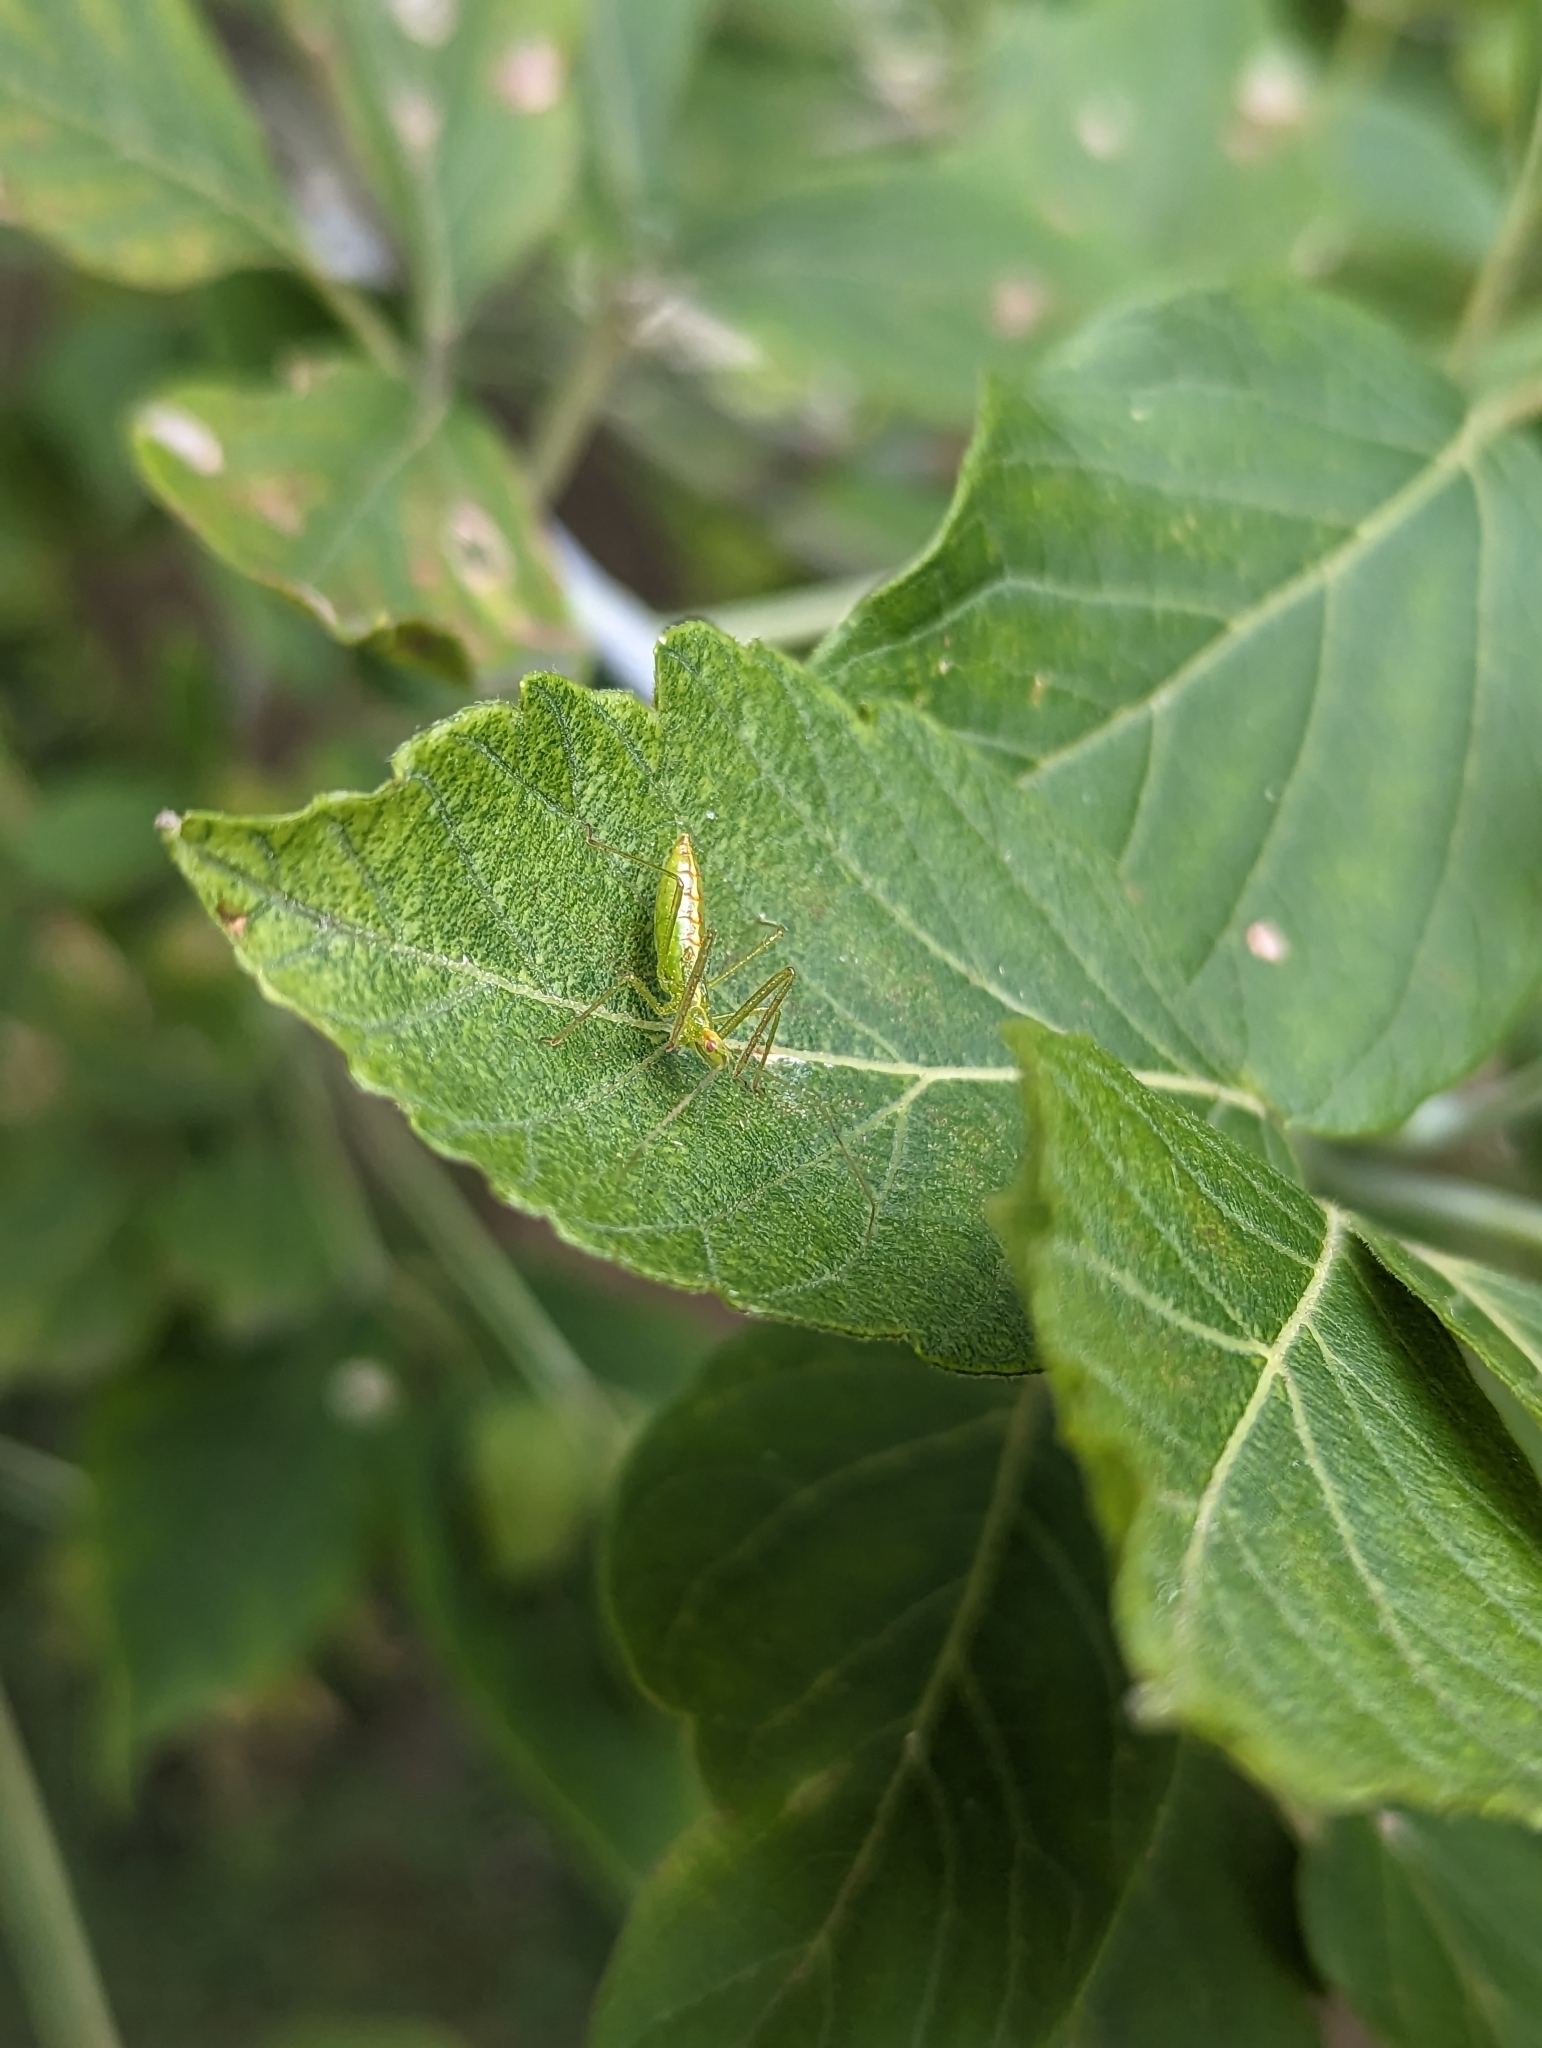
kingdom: Animalia
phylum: Arthropoda
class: Insecta
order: Hemiptera
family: Reduviidae
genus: Zelus
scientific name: Zelus luridus
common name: Pale green assassin bug
